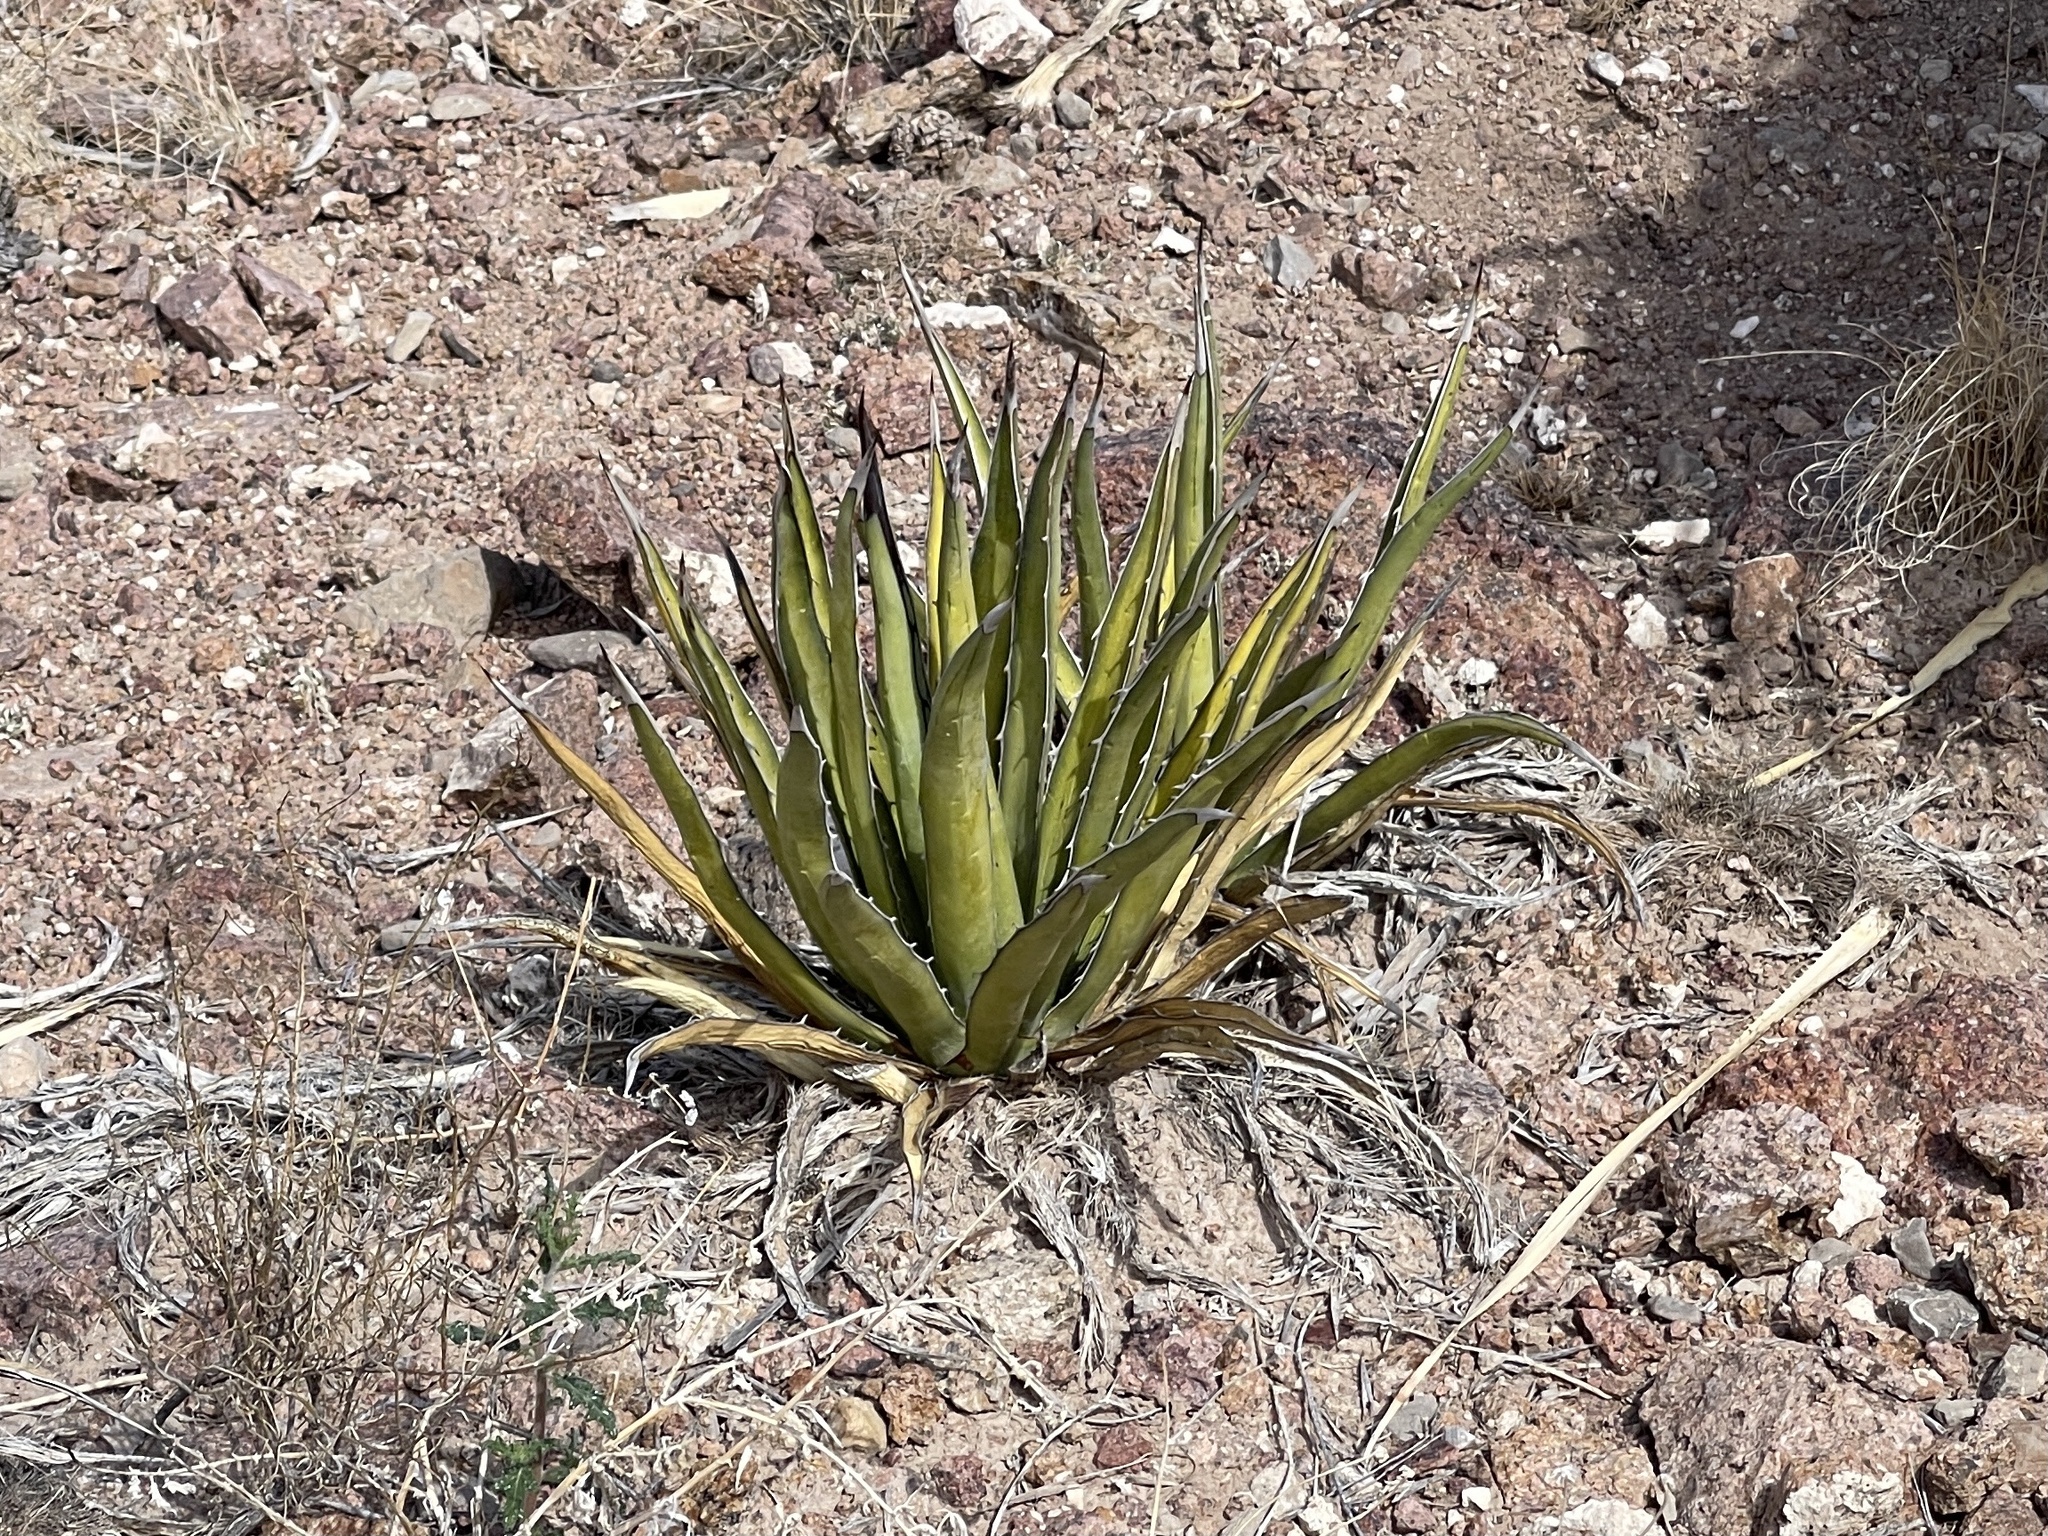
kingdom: Plantae
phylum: Tracheophyta
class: Liliopsida
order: Asparagales
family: Asparagaceae
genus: Agave
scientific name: Agave lechuguilla
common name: Lecheguilla agave
